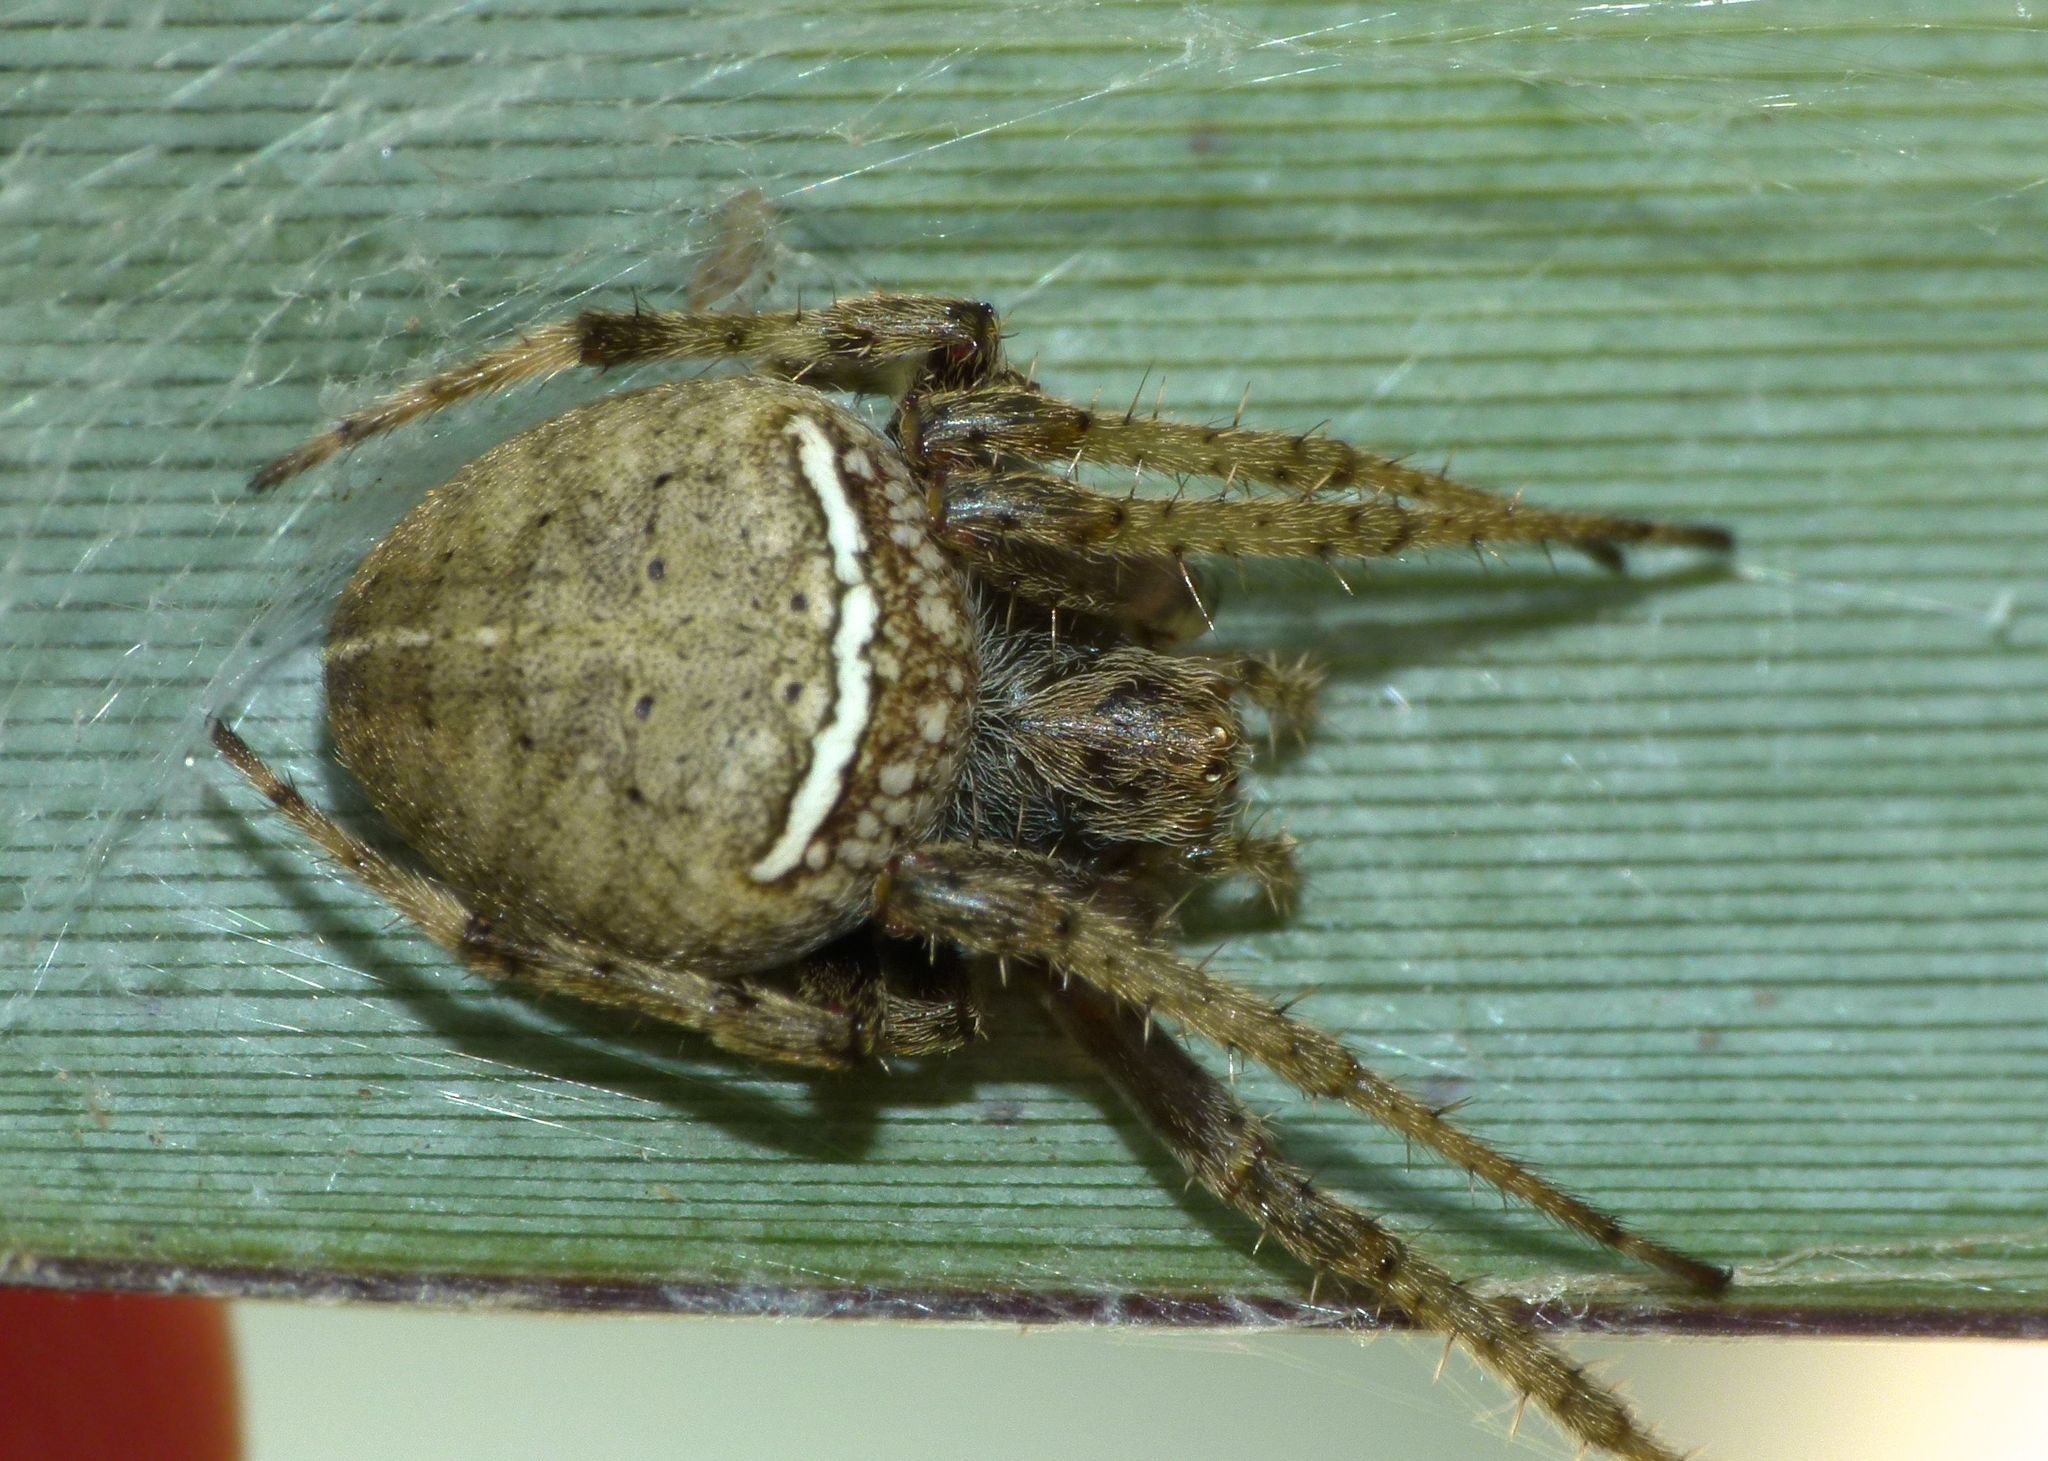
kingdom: Animalia
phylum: Arthropoda
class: Arachnida
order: Araneae
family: Araneidae
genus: Zealaranea
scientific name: Zealaranea crassa
